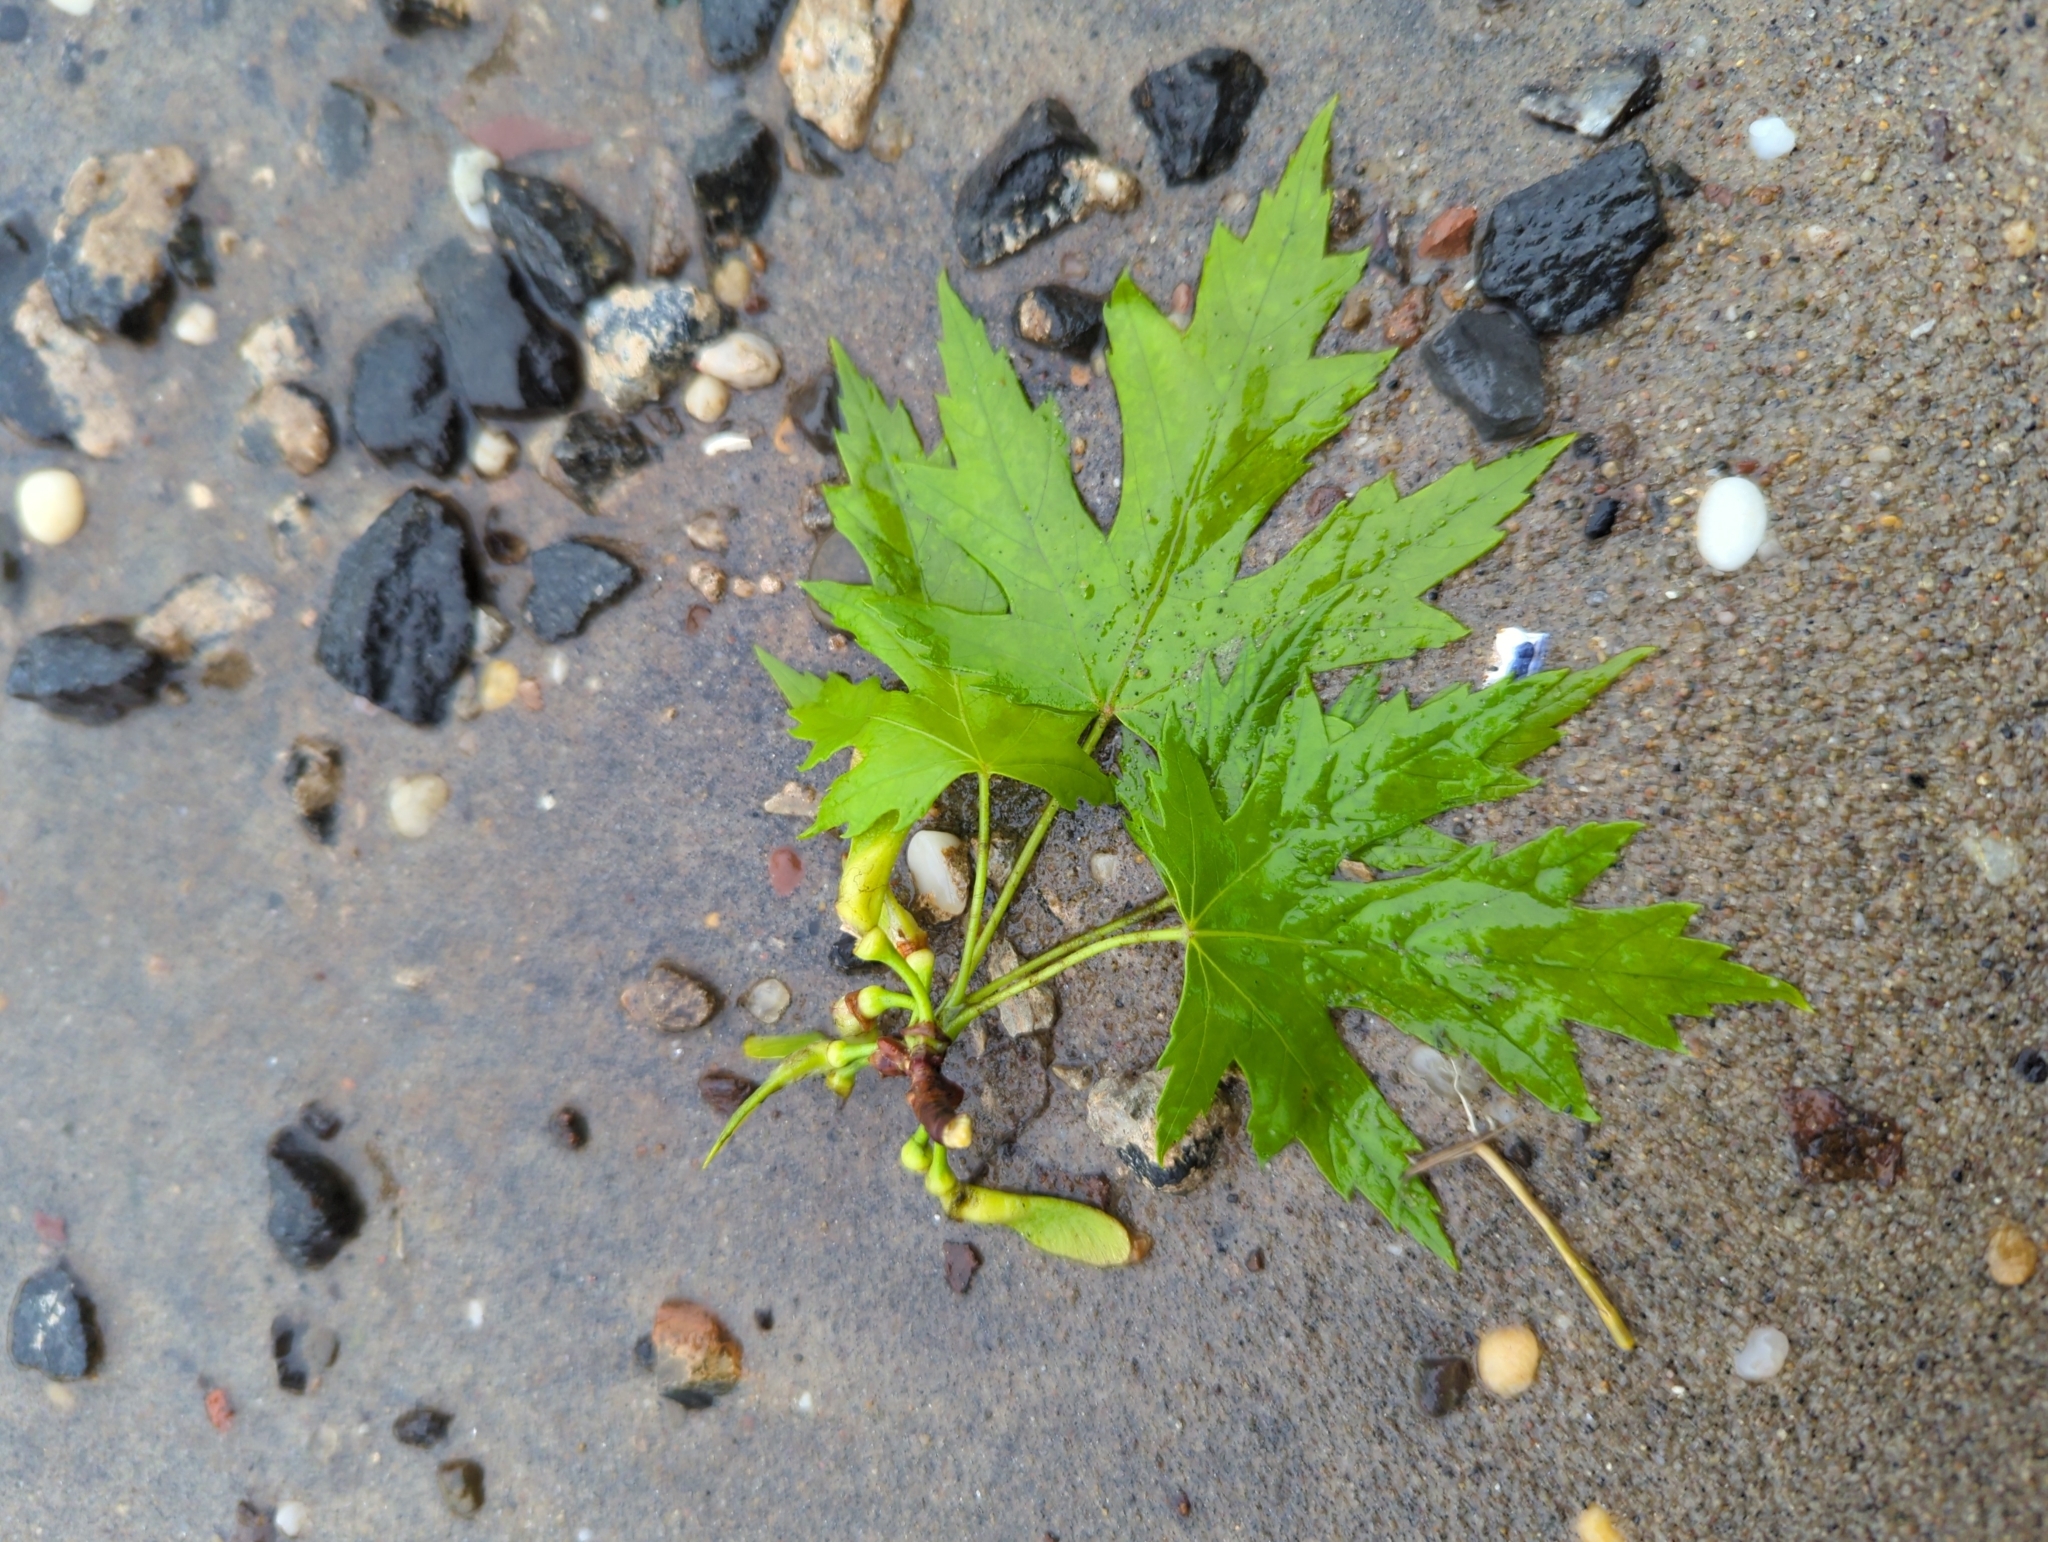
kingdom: Plantae
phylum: Tracheophyta
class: Magnoliopsida
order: Sapindales
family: Sapindaceae
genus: Acer
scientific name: Acer saccharinum
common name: Silver maple
